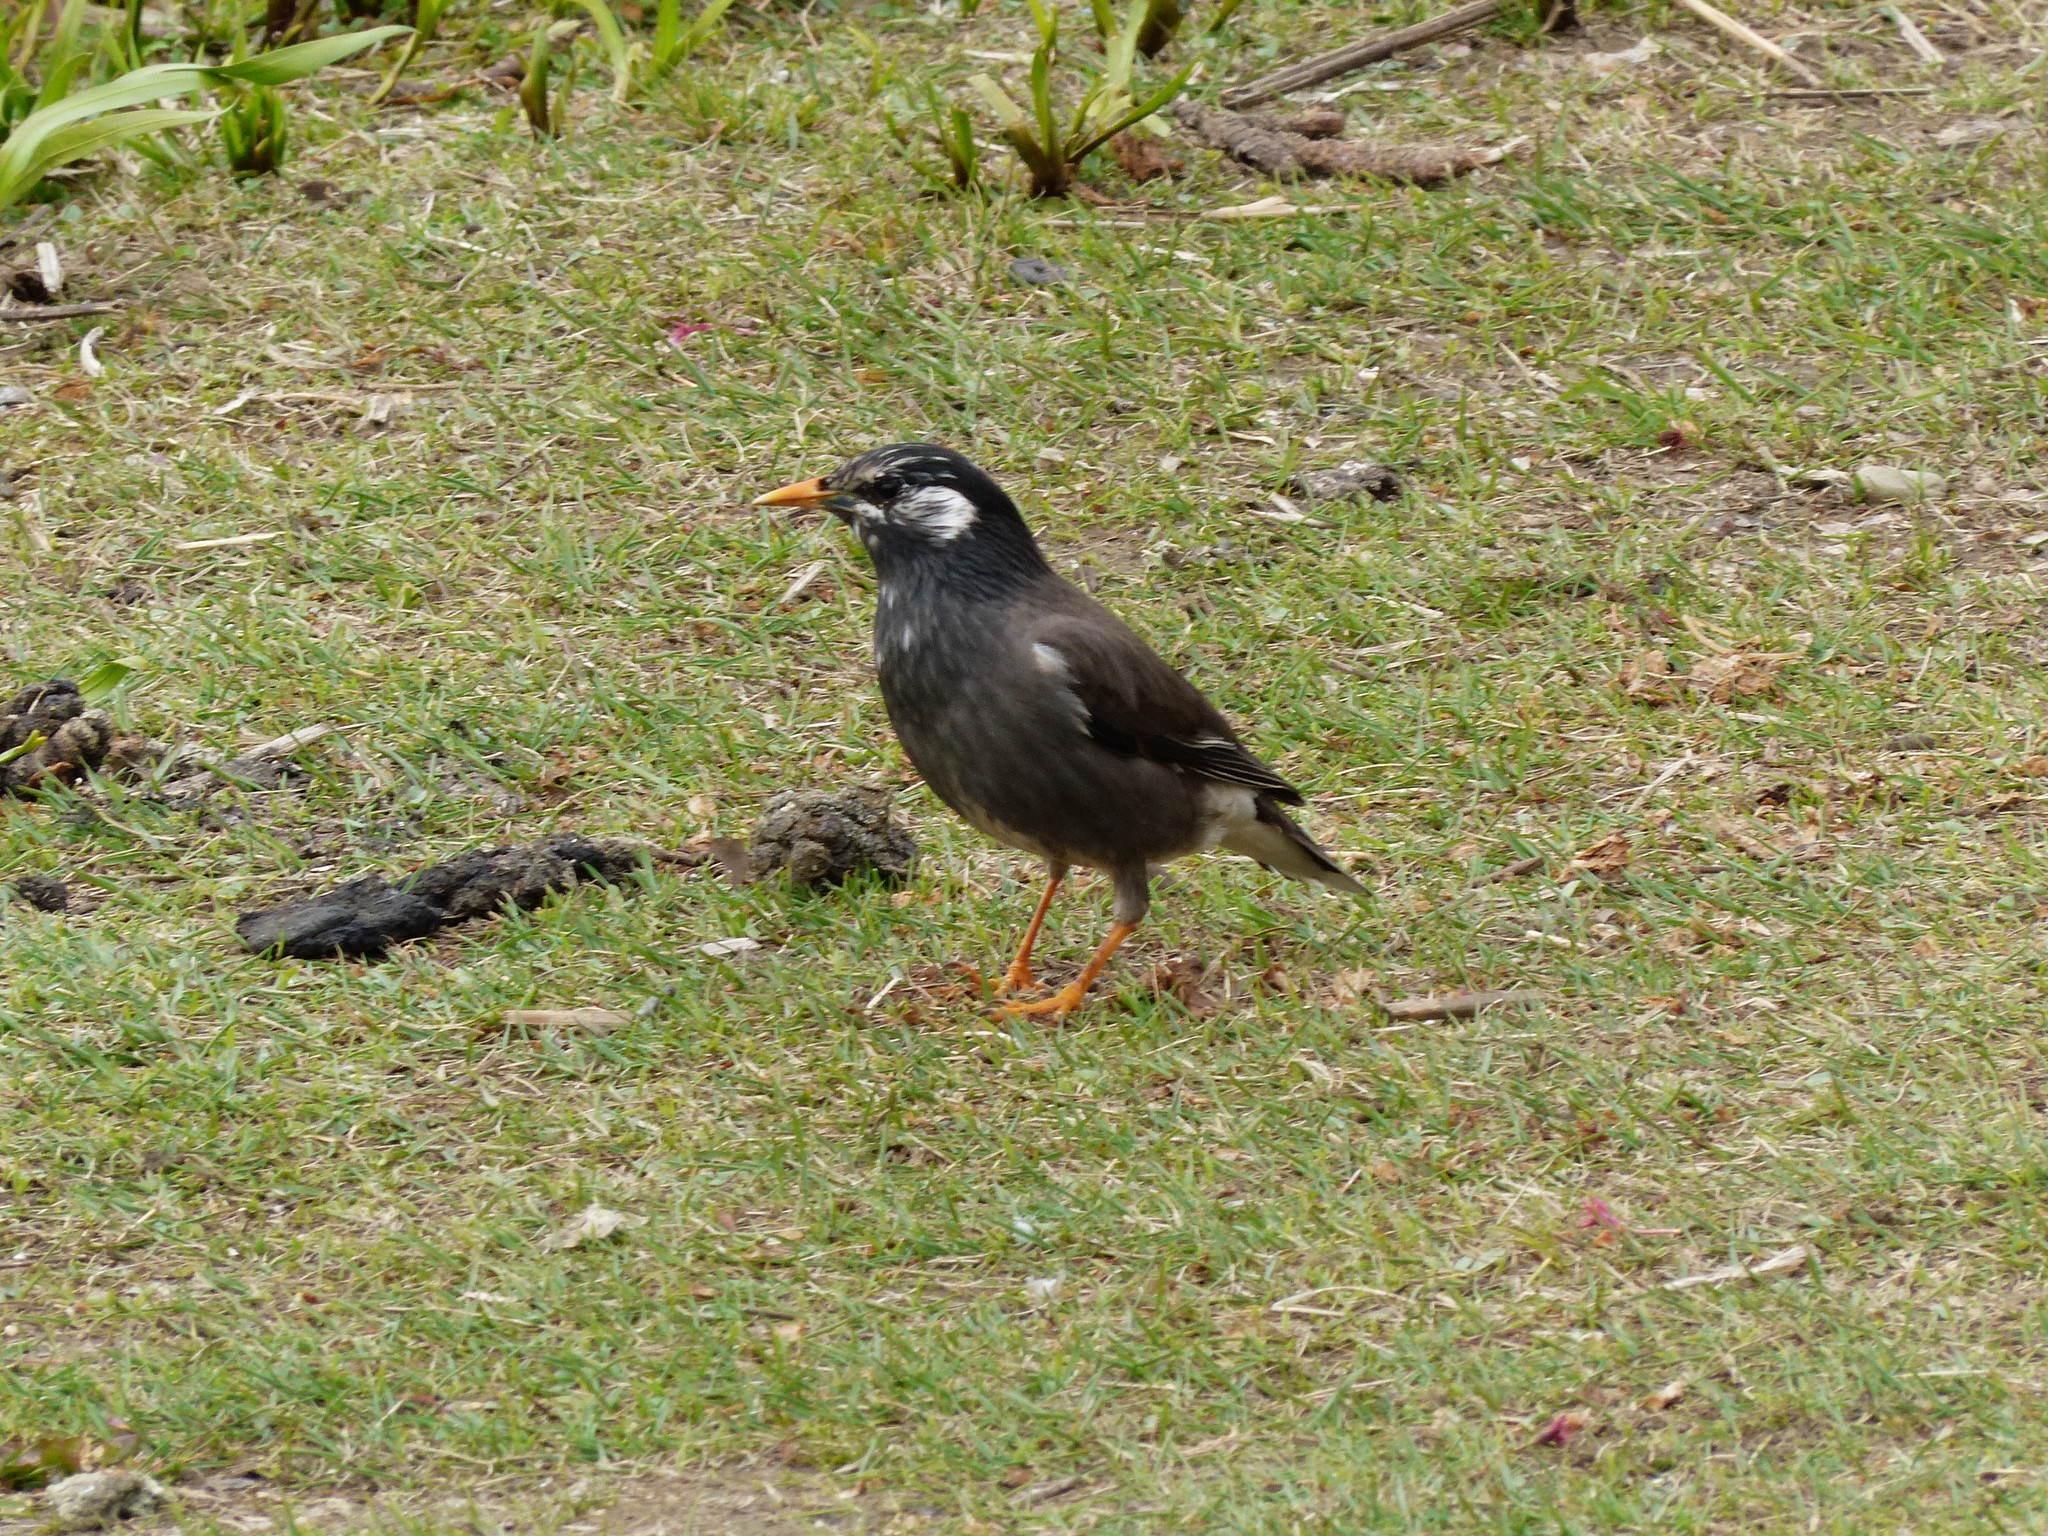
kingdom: Animalia
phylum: Chordata
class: Aves
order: Passeriformes
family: Sturnidae
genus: Spodiopsar
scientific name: Spodiopsar cineraceus
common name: White-cheeked starling
